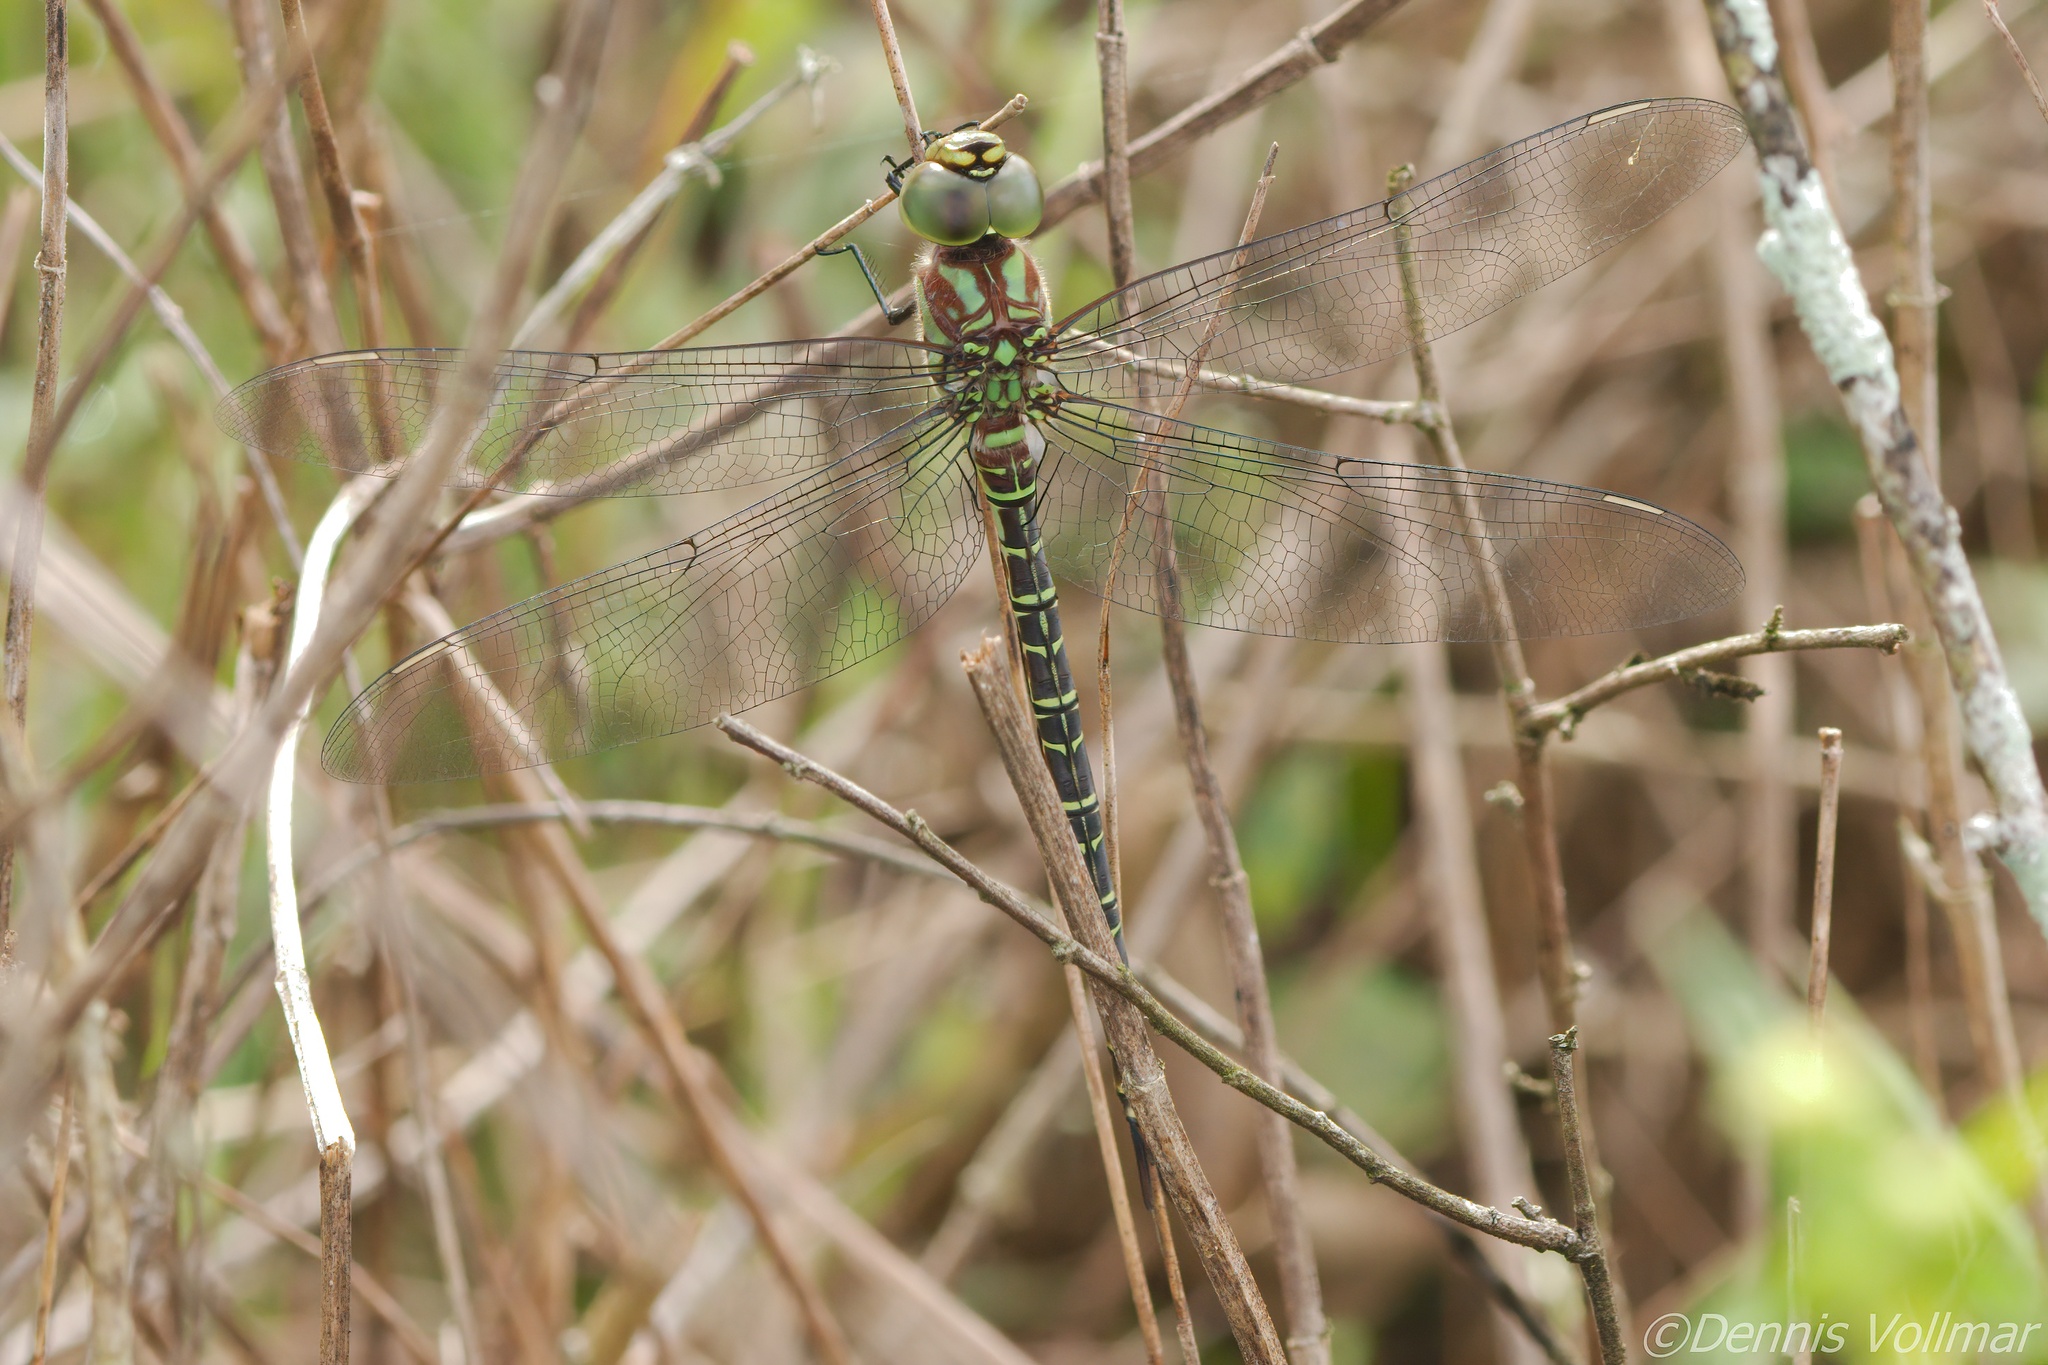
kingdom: Animalia
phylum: Arthropoda
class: Insecta
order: Odonata
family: Aeshnidae
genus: Coryphaeschna
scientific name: Coryphaeschna ingens
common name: Regal darner
